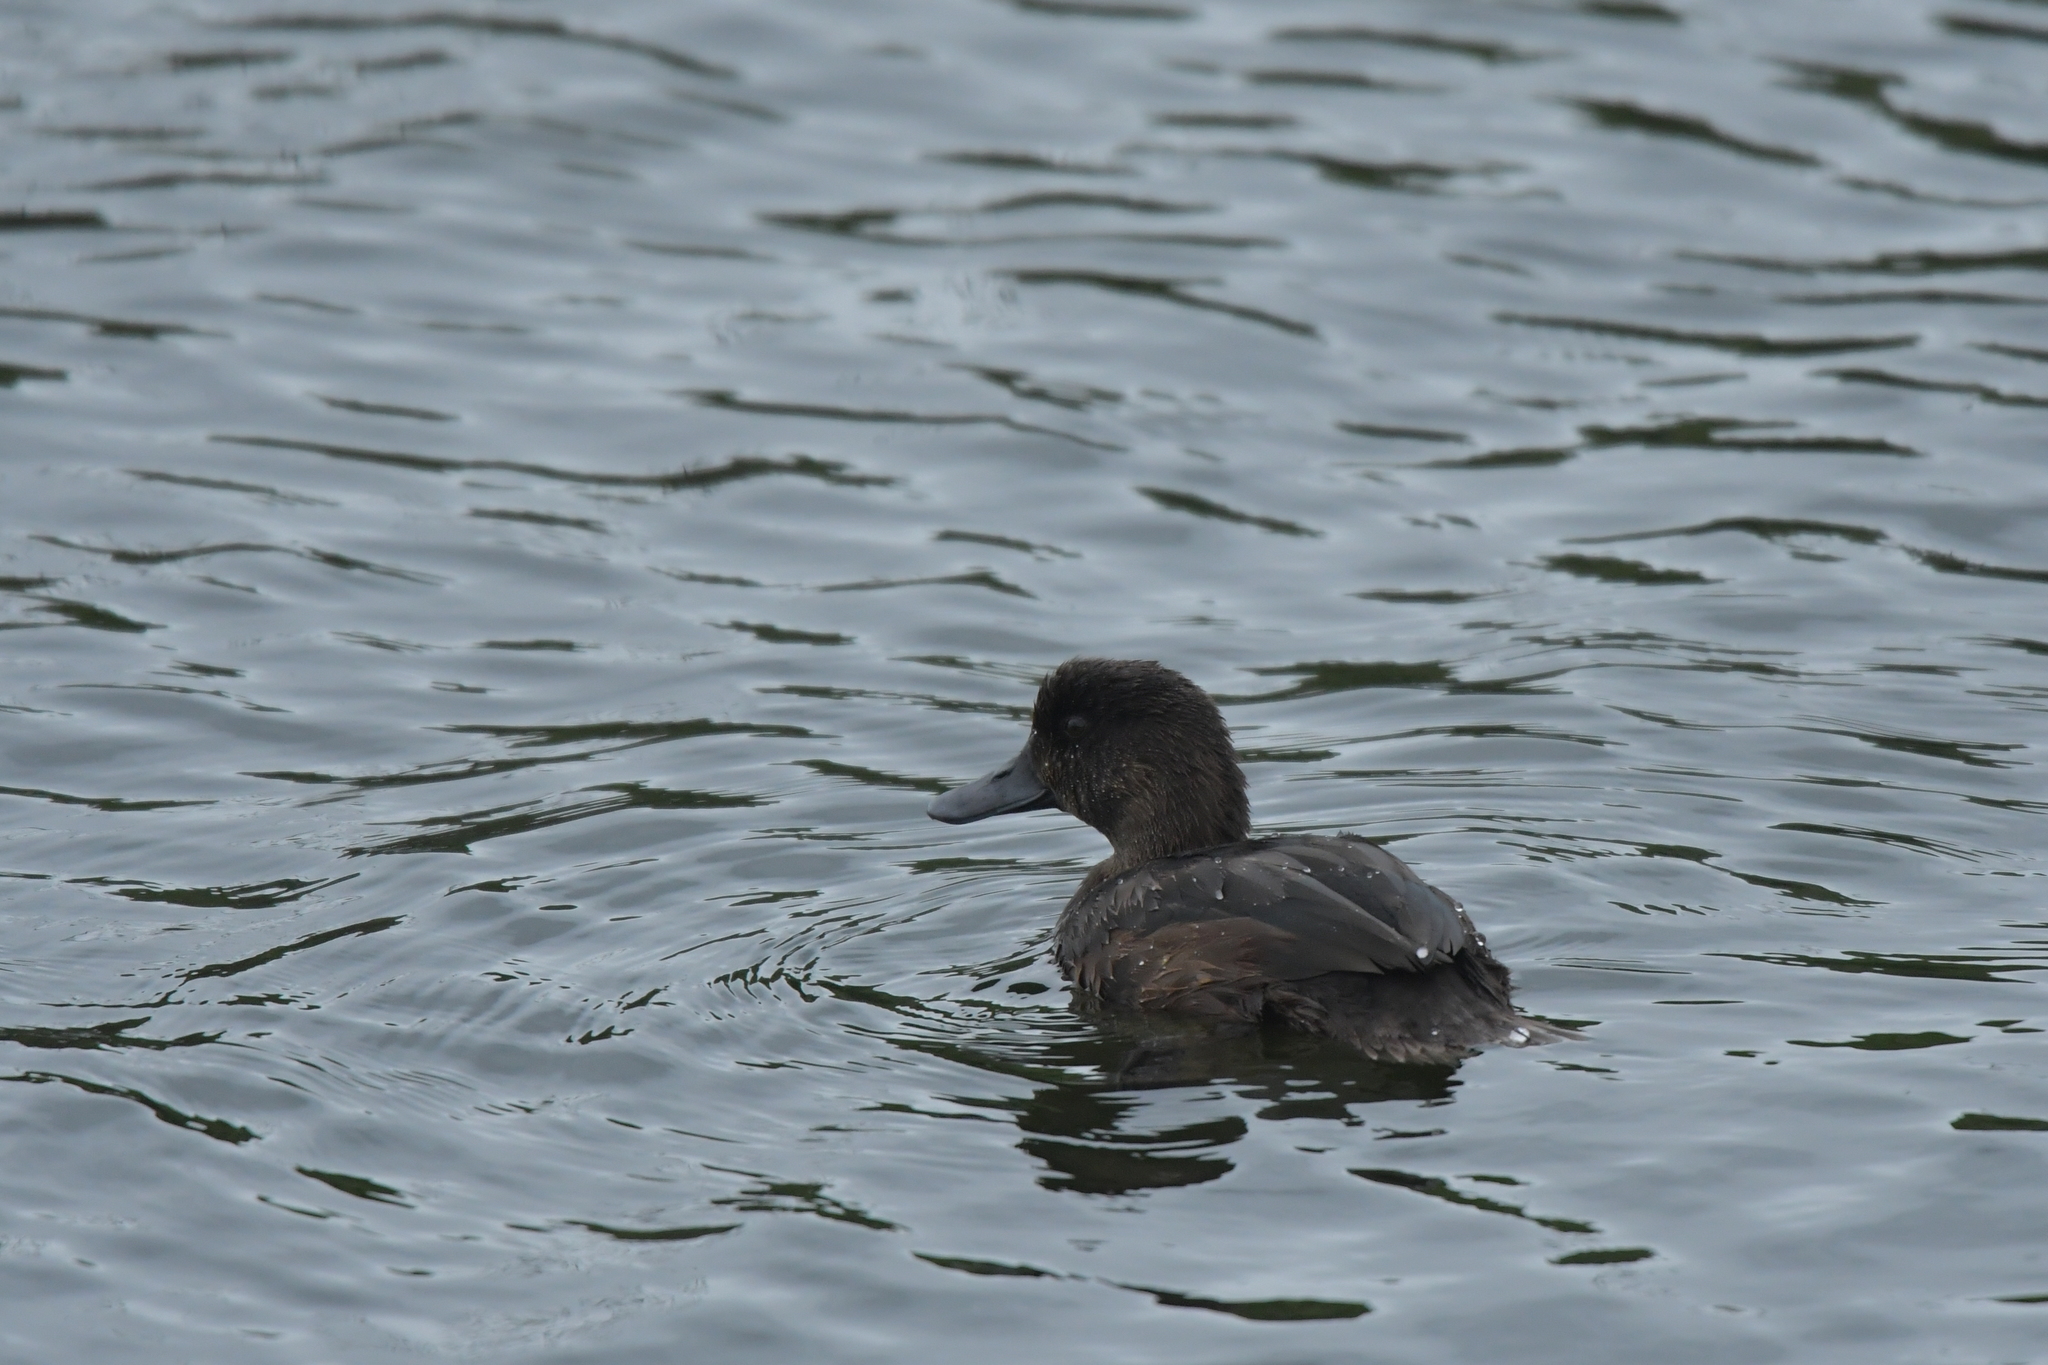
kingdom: Animalia
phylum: Chordata
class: Aves
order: Anseriformes
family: Anatidae
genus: Aythya
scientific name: Aythya novaeseelandiae
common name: New zealand scaup
